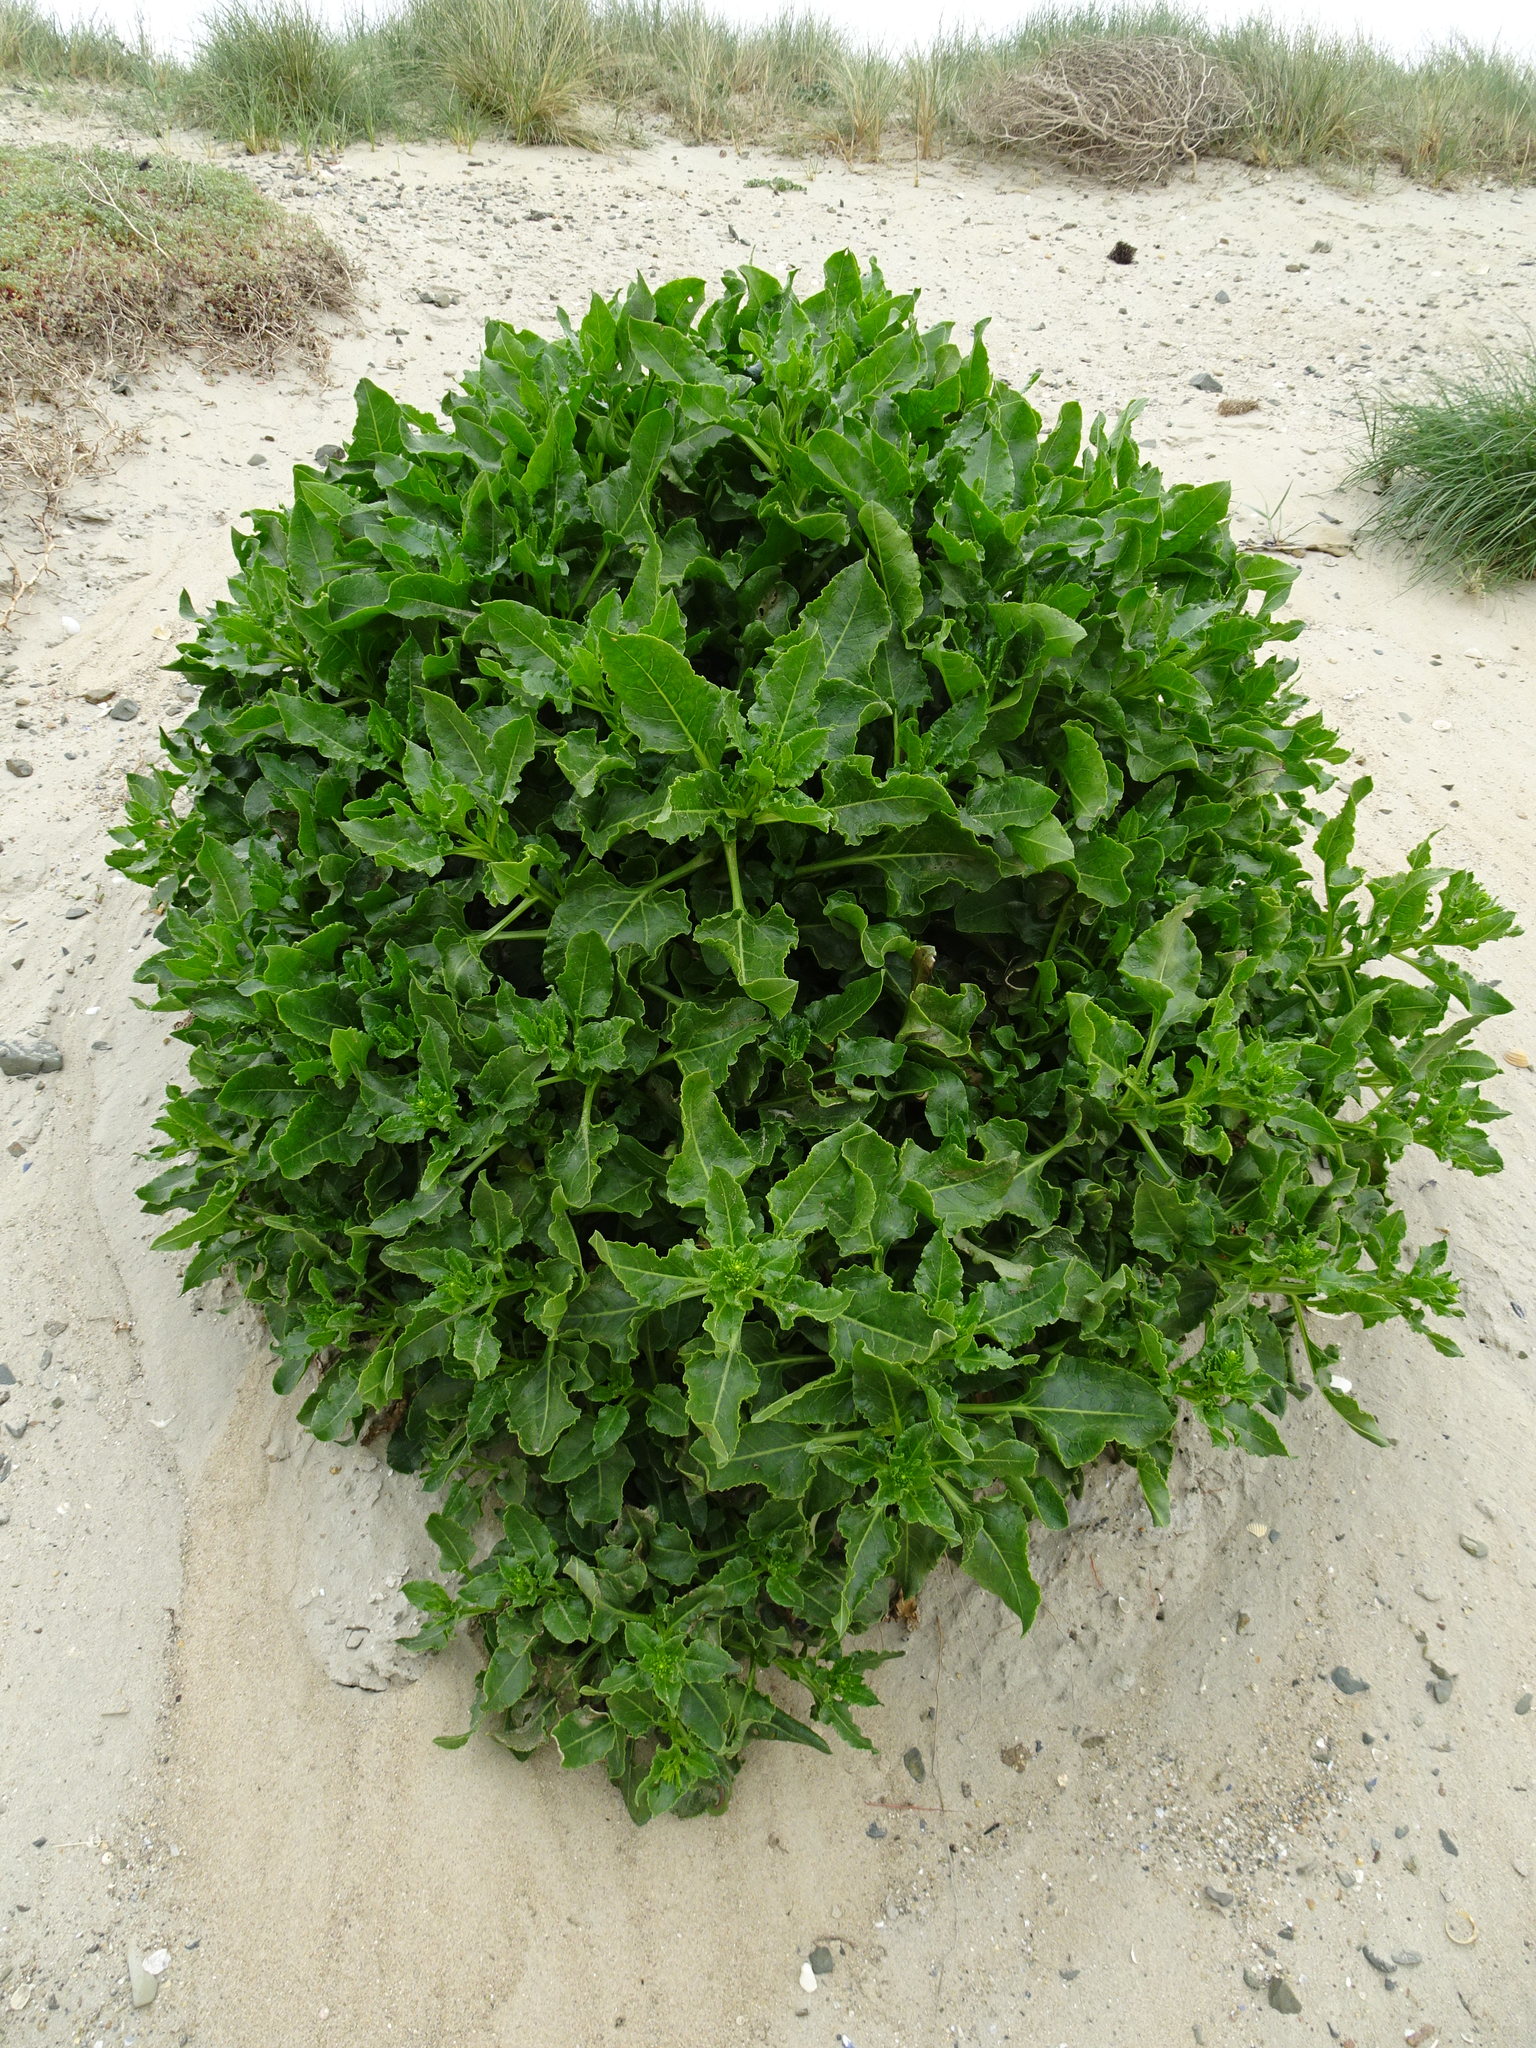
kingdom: Plantae
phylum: Tracheophyta
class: Magnoliopsida
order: Caryophyllales
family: Amaranthaceae
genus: Beta
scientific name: Beta vulgaris
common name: Beet
